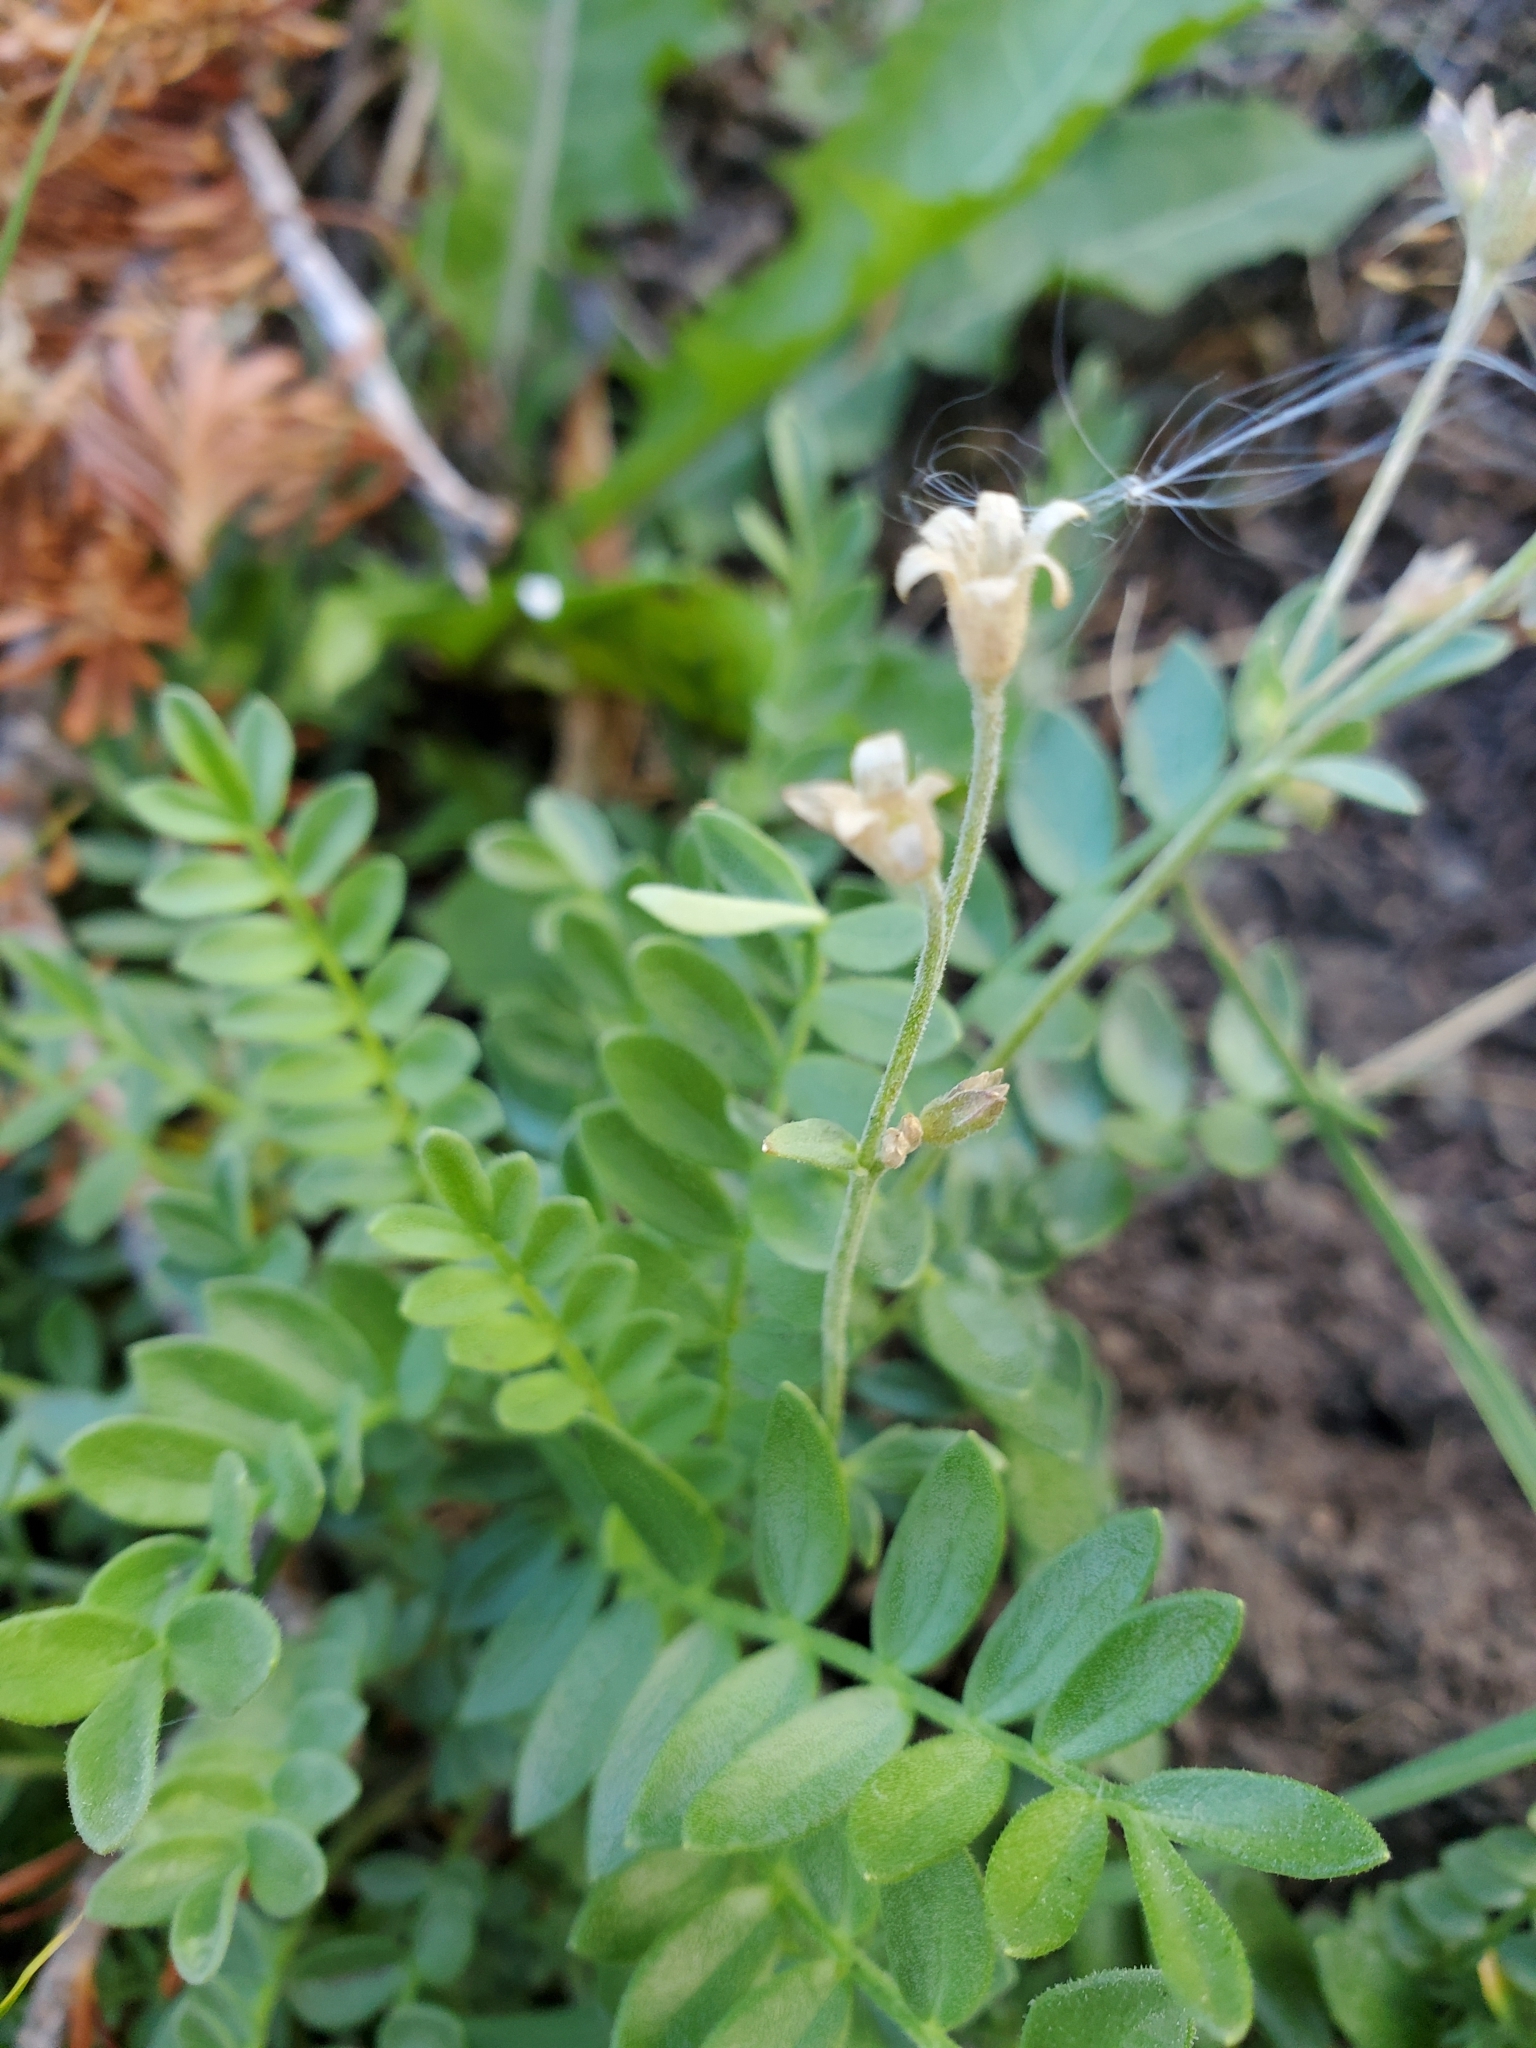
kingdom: Plantae
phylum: Tracheophyta
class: Magnoliopsida
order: Ericales
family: Polemoniaceae
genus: Polemonium
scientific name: Polemonium pulcherrimum
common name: Short jacob's-ladder
